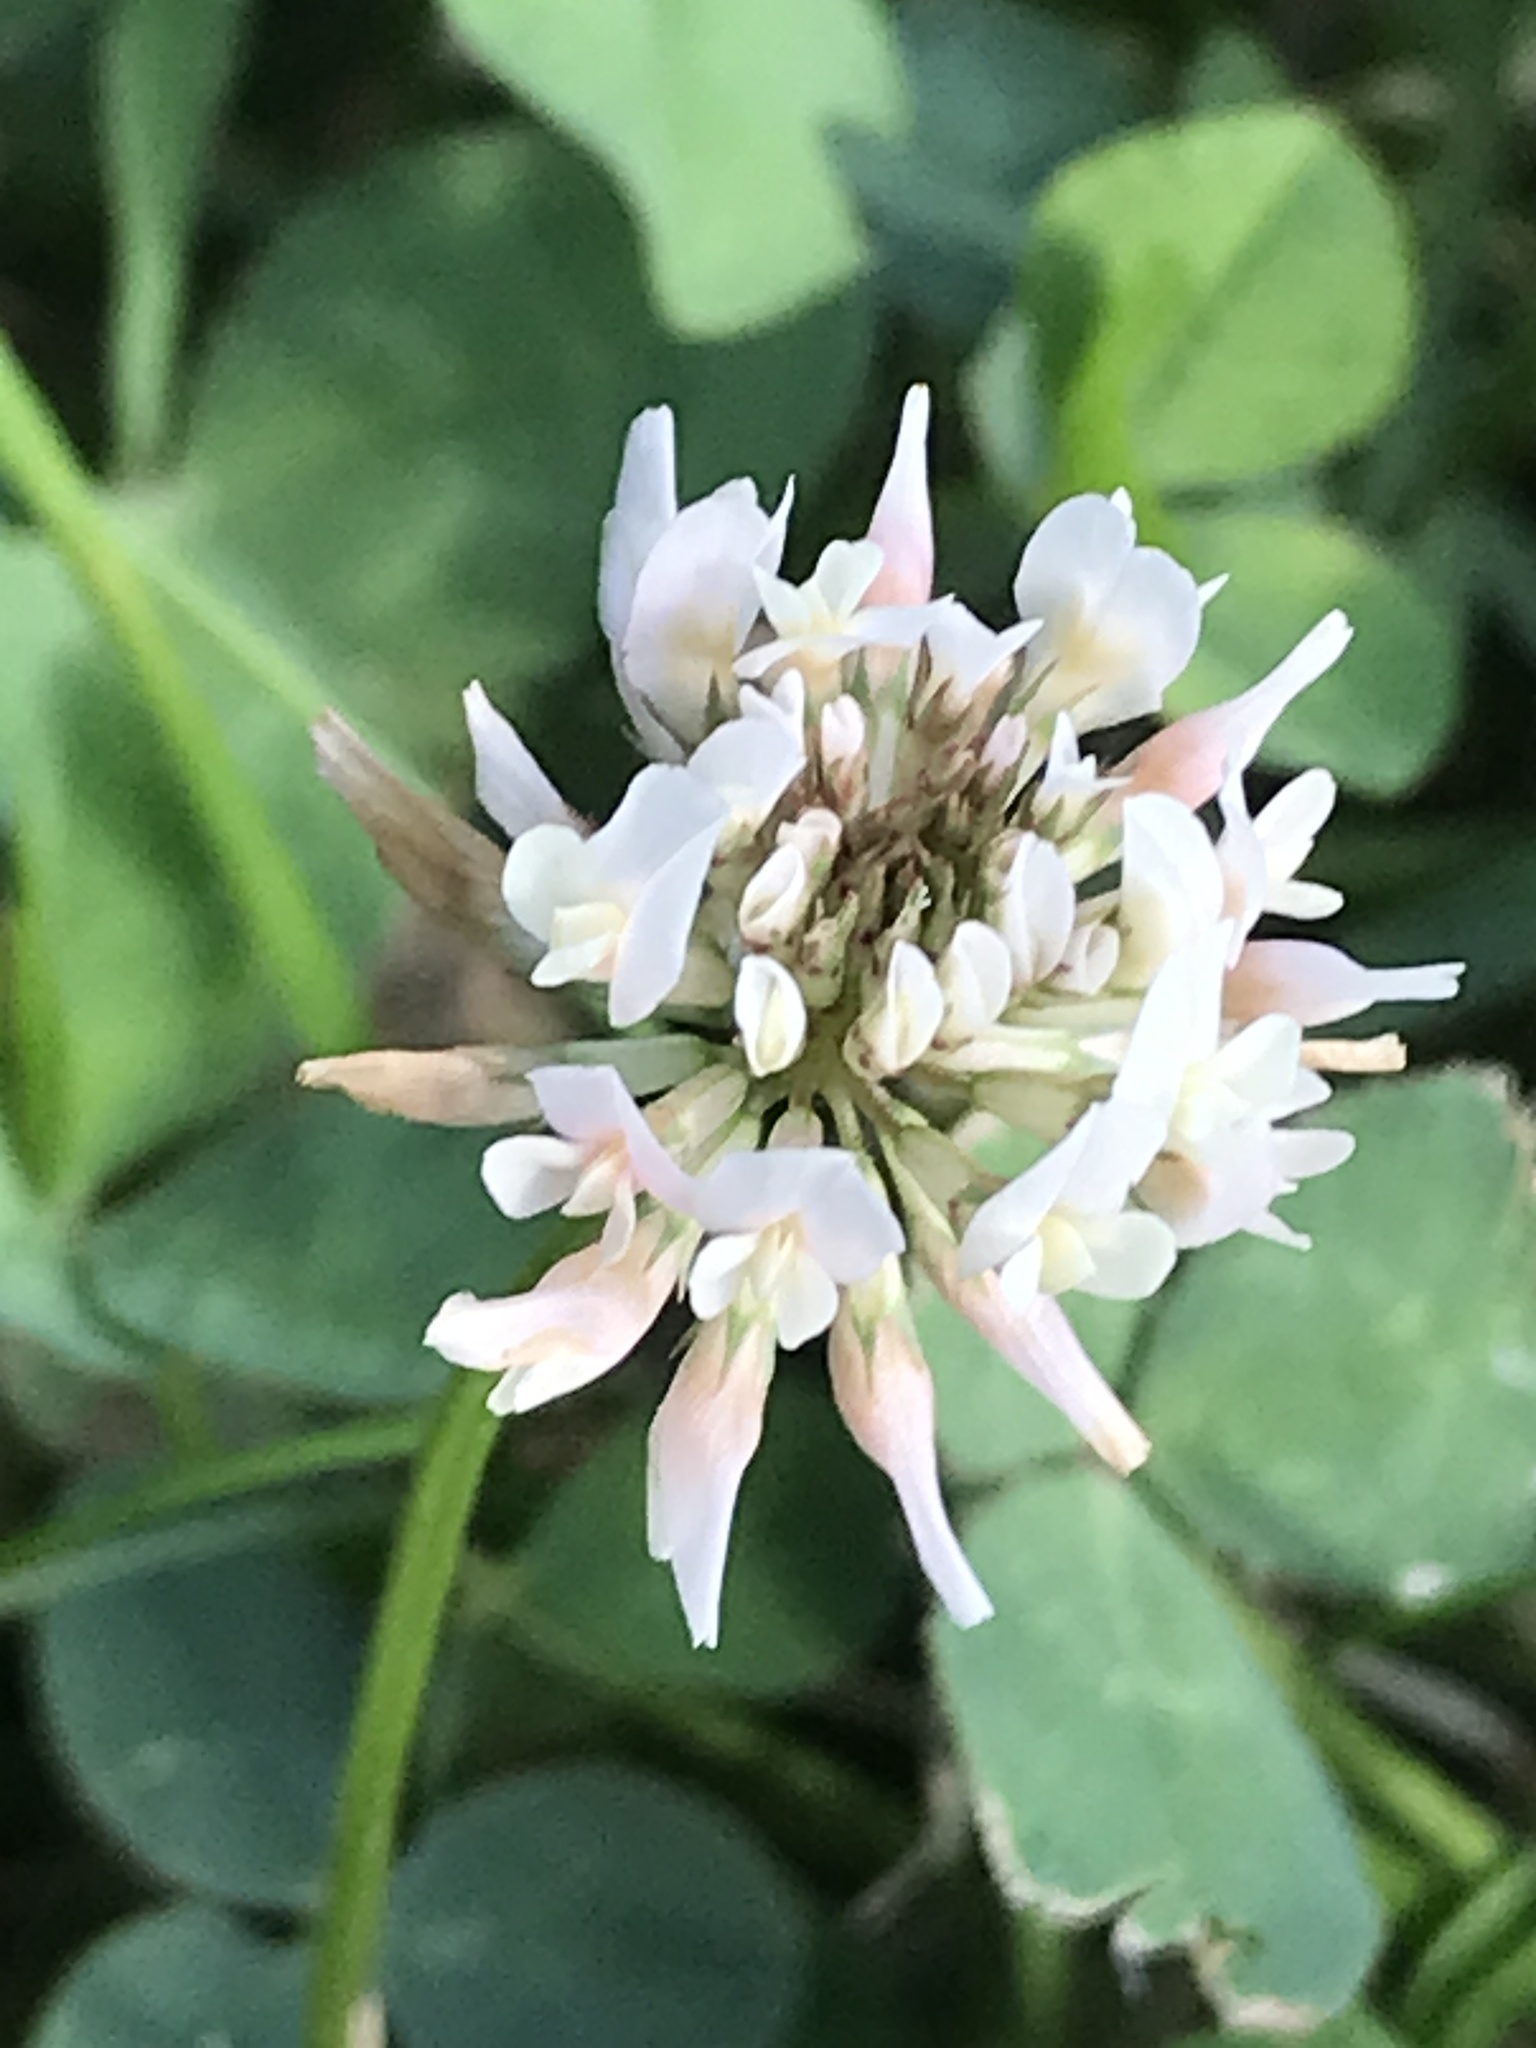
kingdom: Plantae
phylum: Tracheophyta
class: Magnoliopsida
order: Fabales
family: Fabaceae
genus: Trifolium
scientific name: Trifolium repens
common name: White clover
